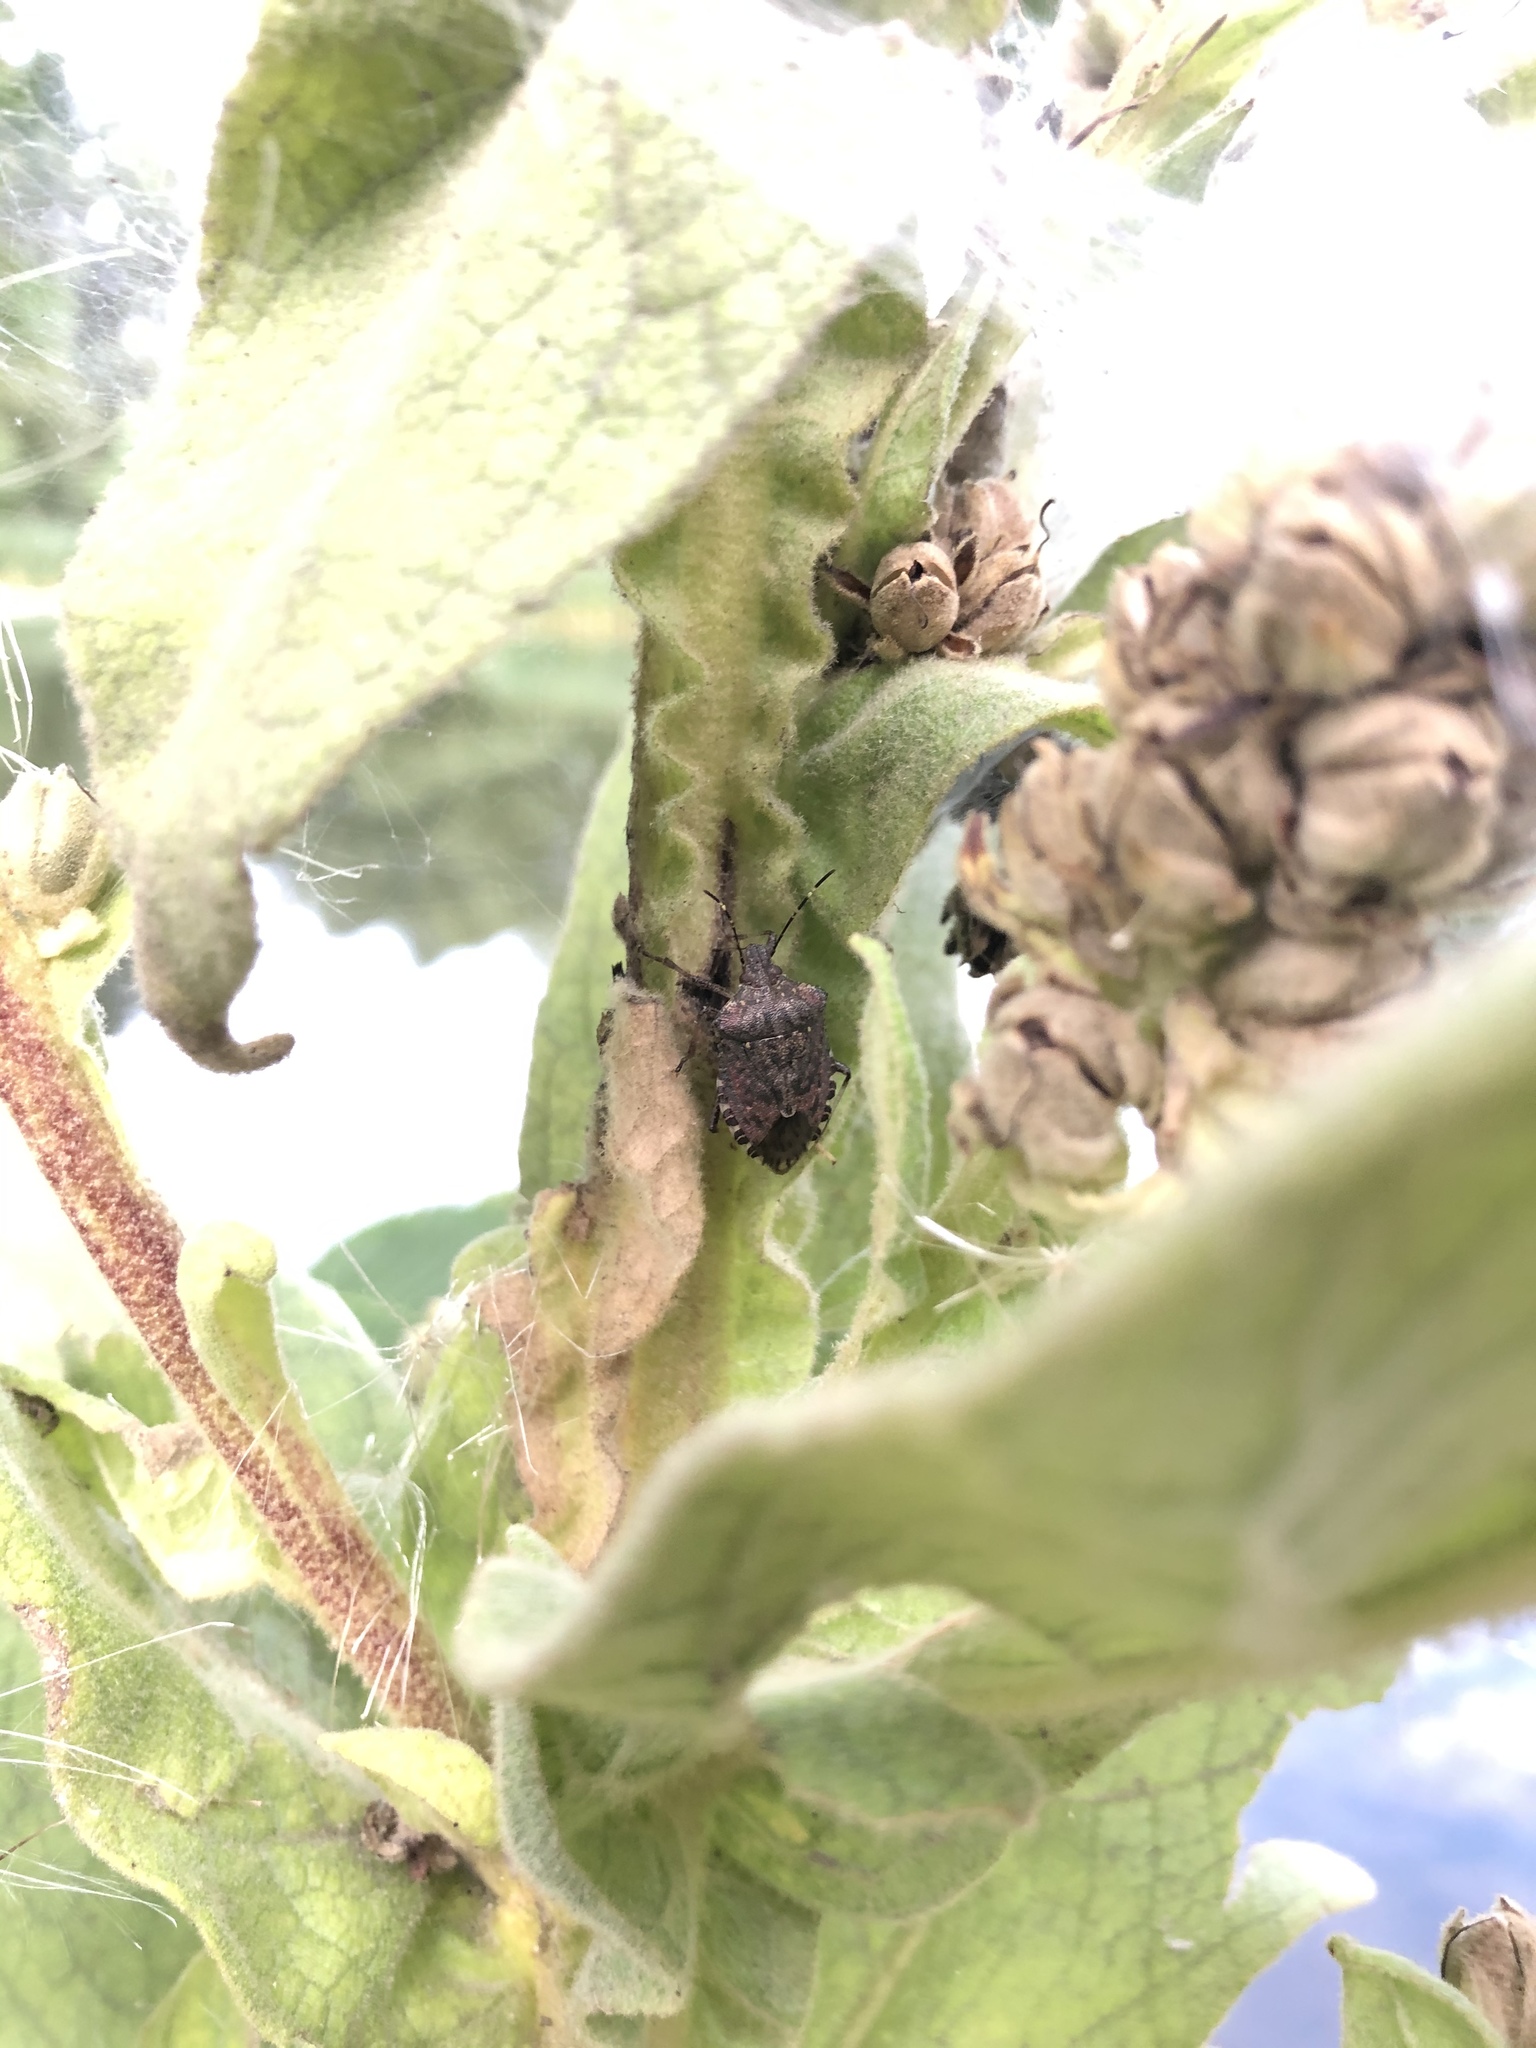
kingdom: Animalia
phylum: Arthropoda
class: Insecta
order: Hemiptera
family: Pentatomidae
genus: Halyomorpha
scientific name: Halyomorpha halys
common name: Brown marmorated stink bug
